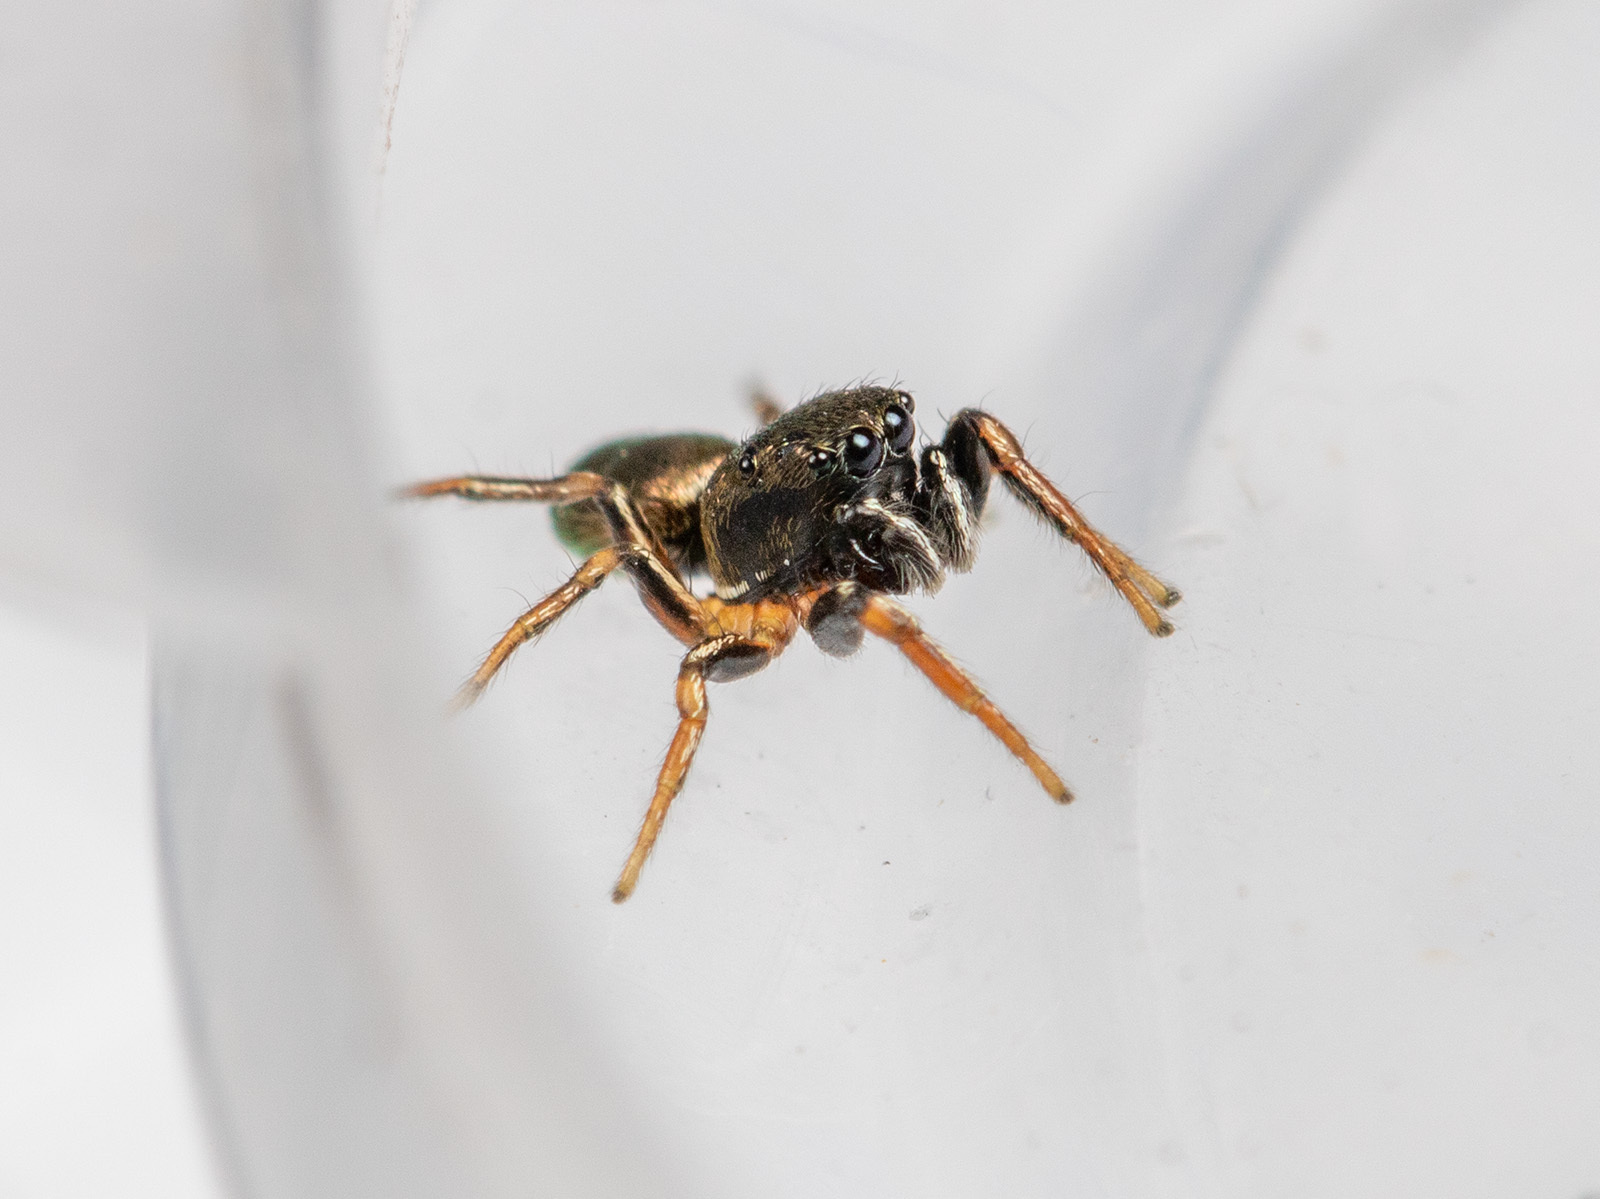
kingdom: Animalia
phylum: Arthropoda
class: Arachnida
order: Araneae
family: Salticidae
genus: Heliophanus
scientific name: Heliophanus auratus
